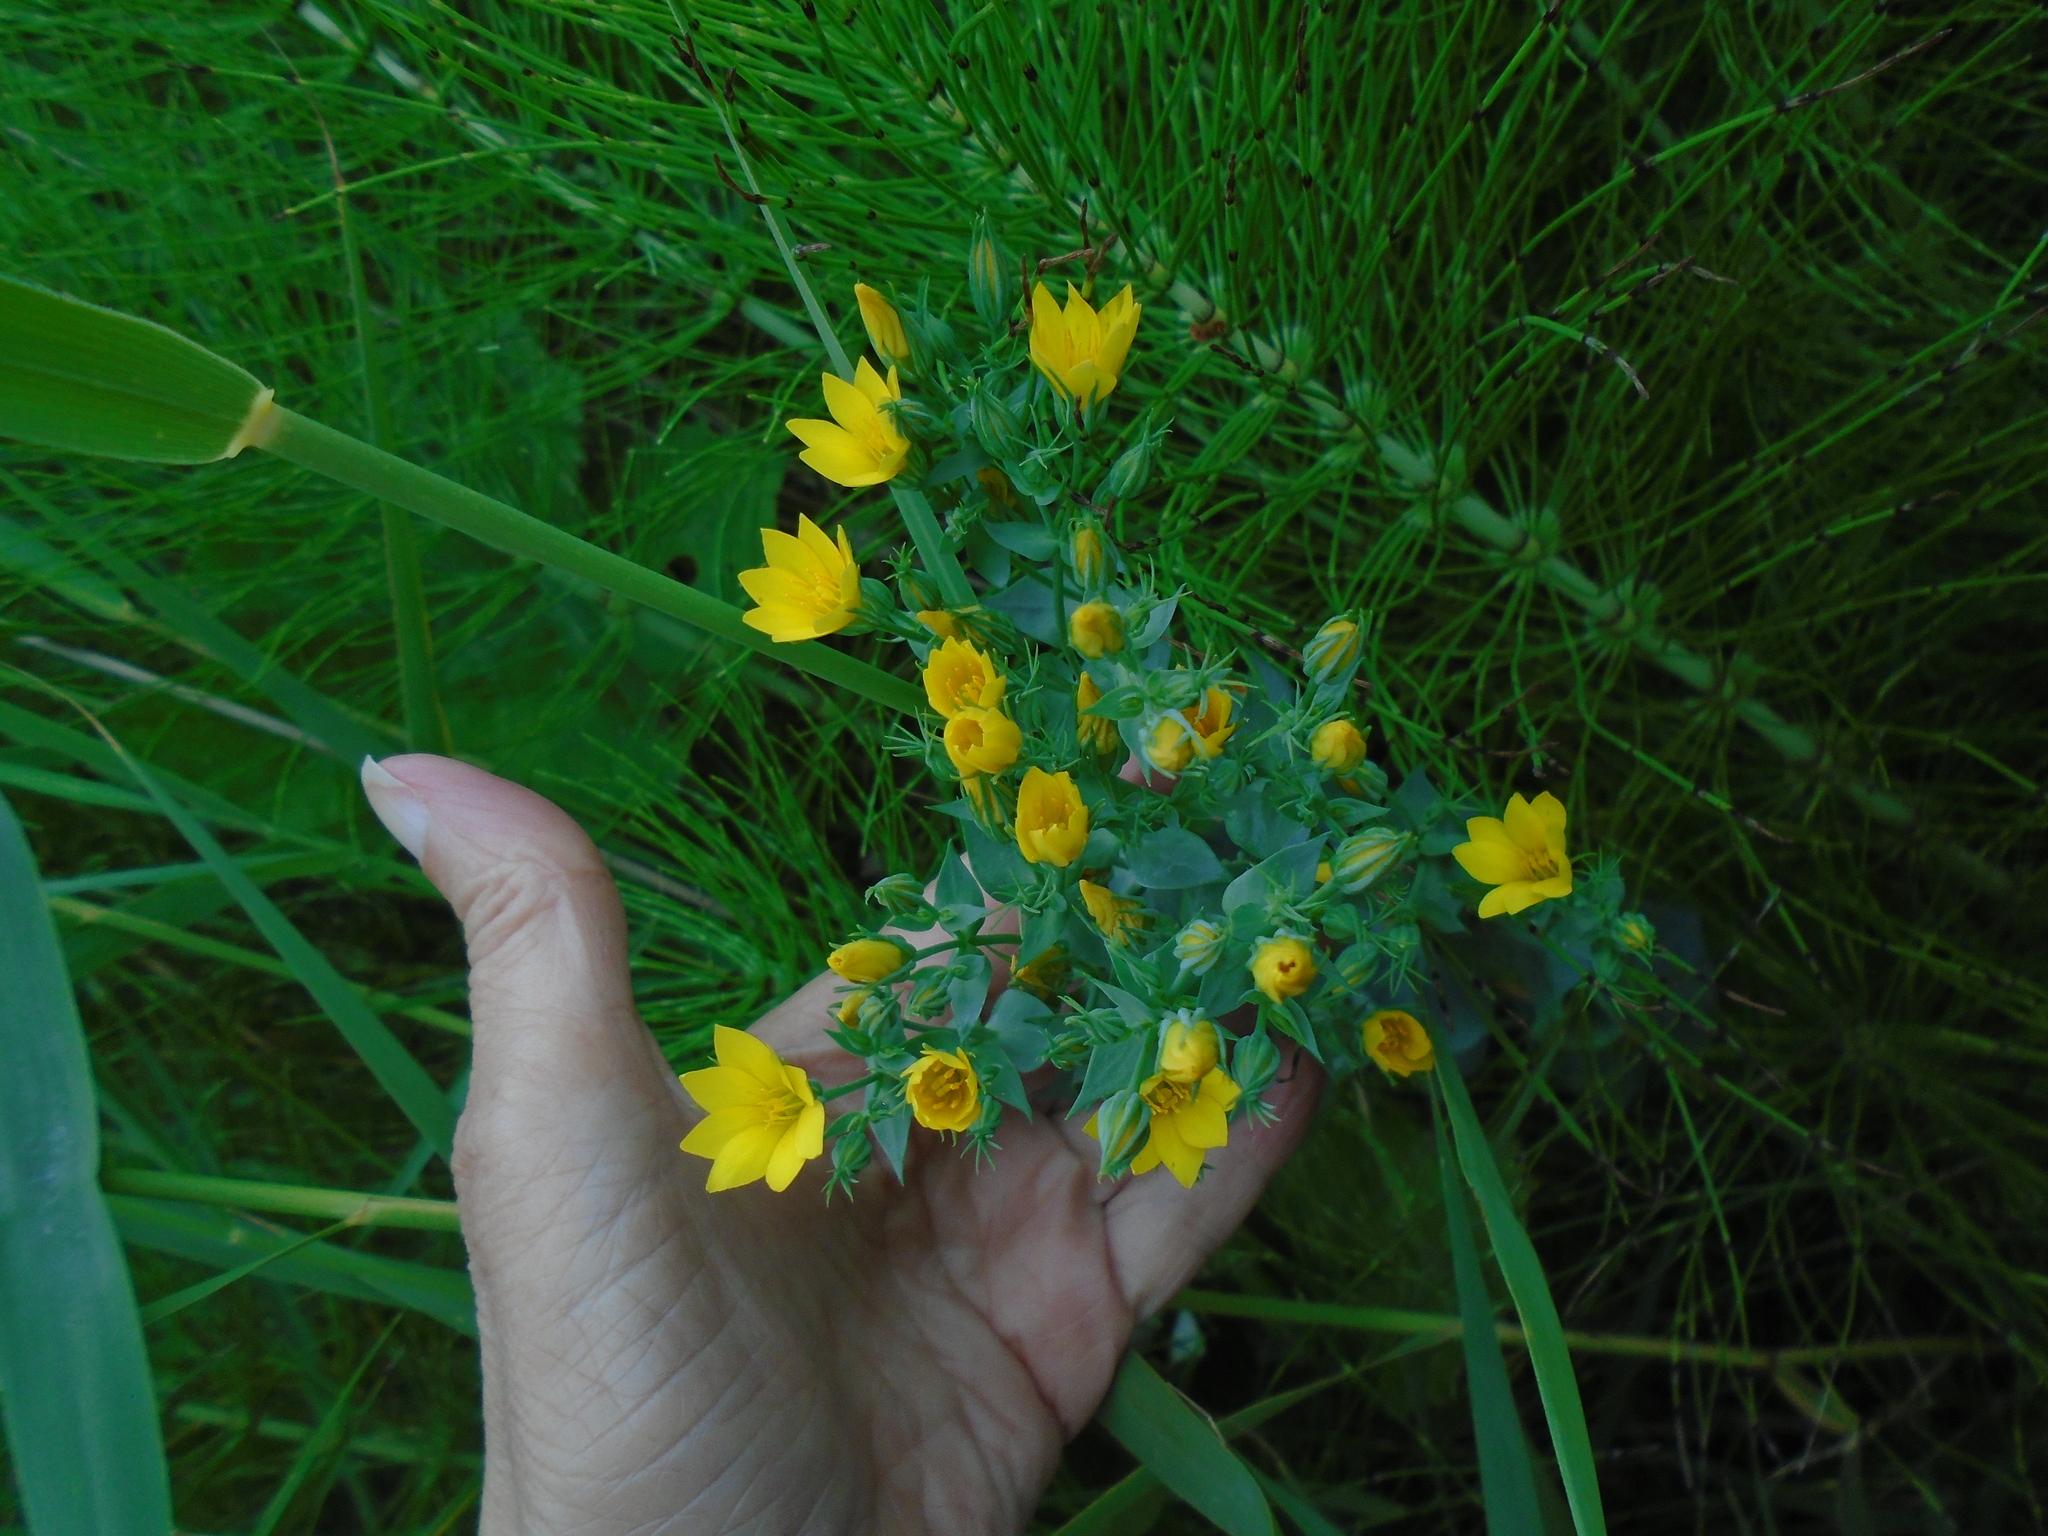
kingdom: Plantae
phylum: Tracheophyta
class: Magnoliopsida
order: Gentianales
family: Gentianaceae
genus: Blackstonia
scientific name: Blackstonia perfoliata
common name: Yellow-wort
